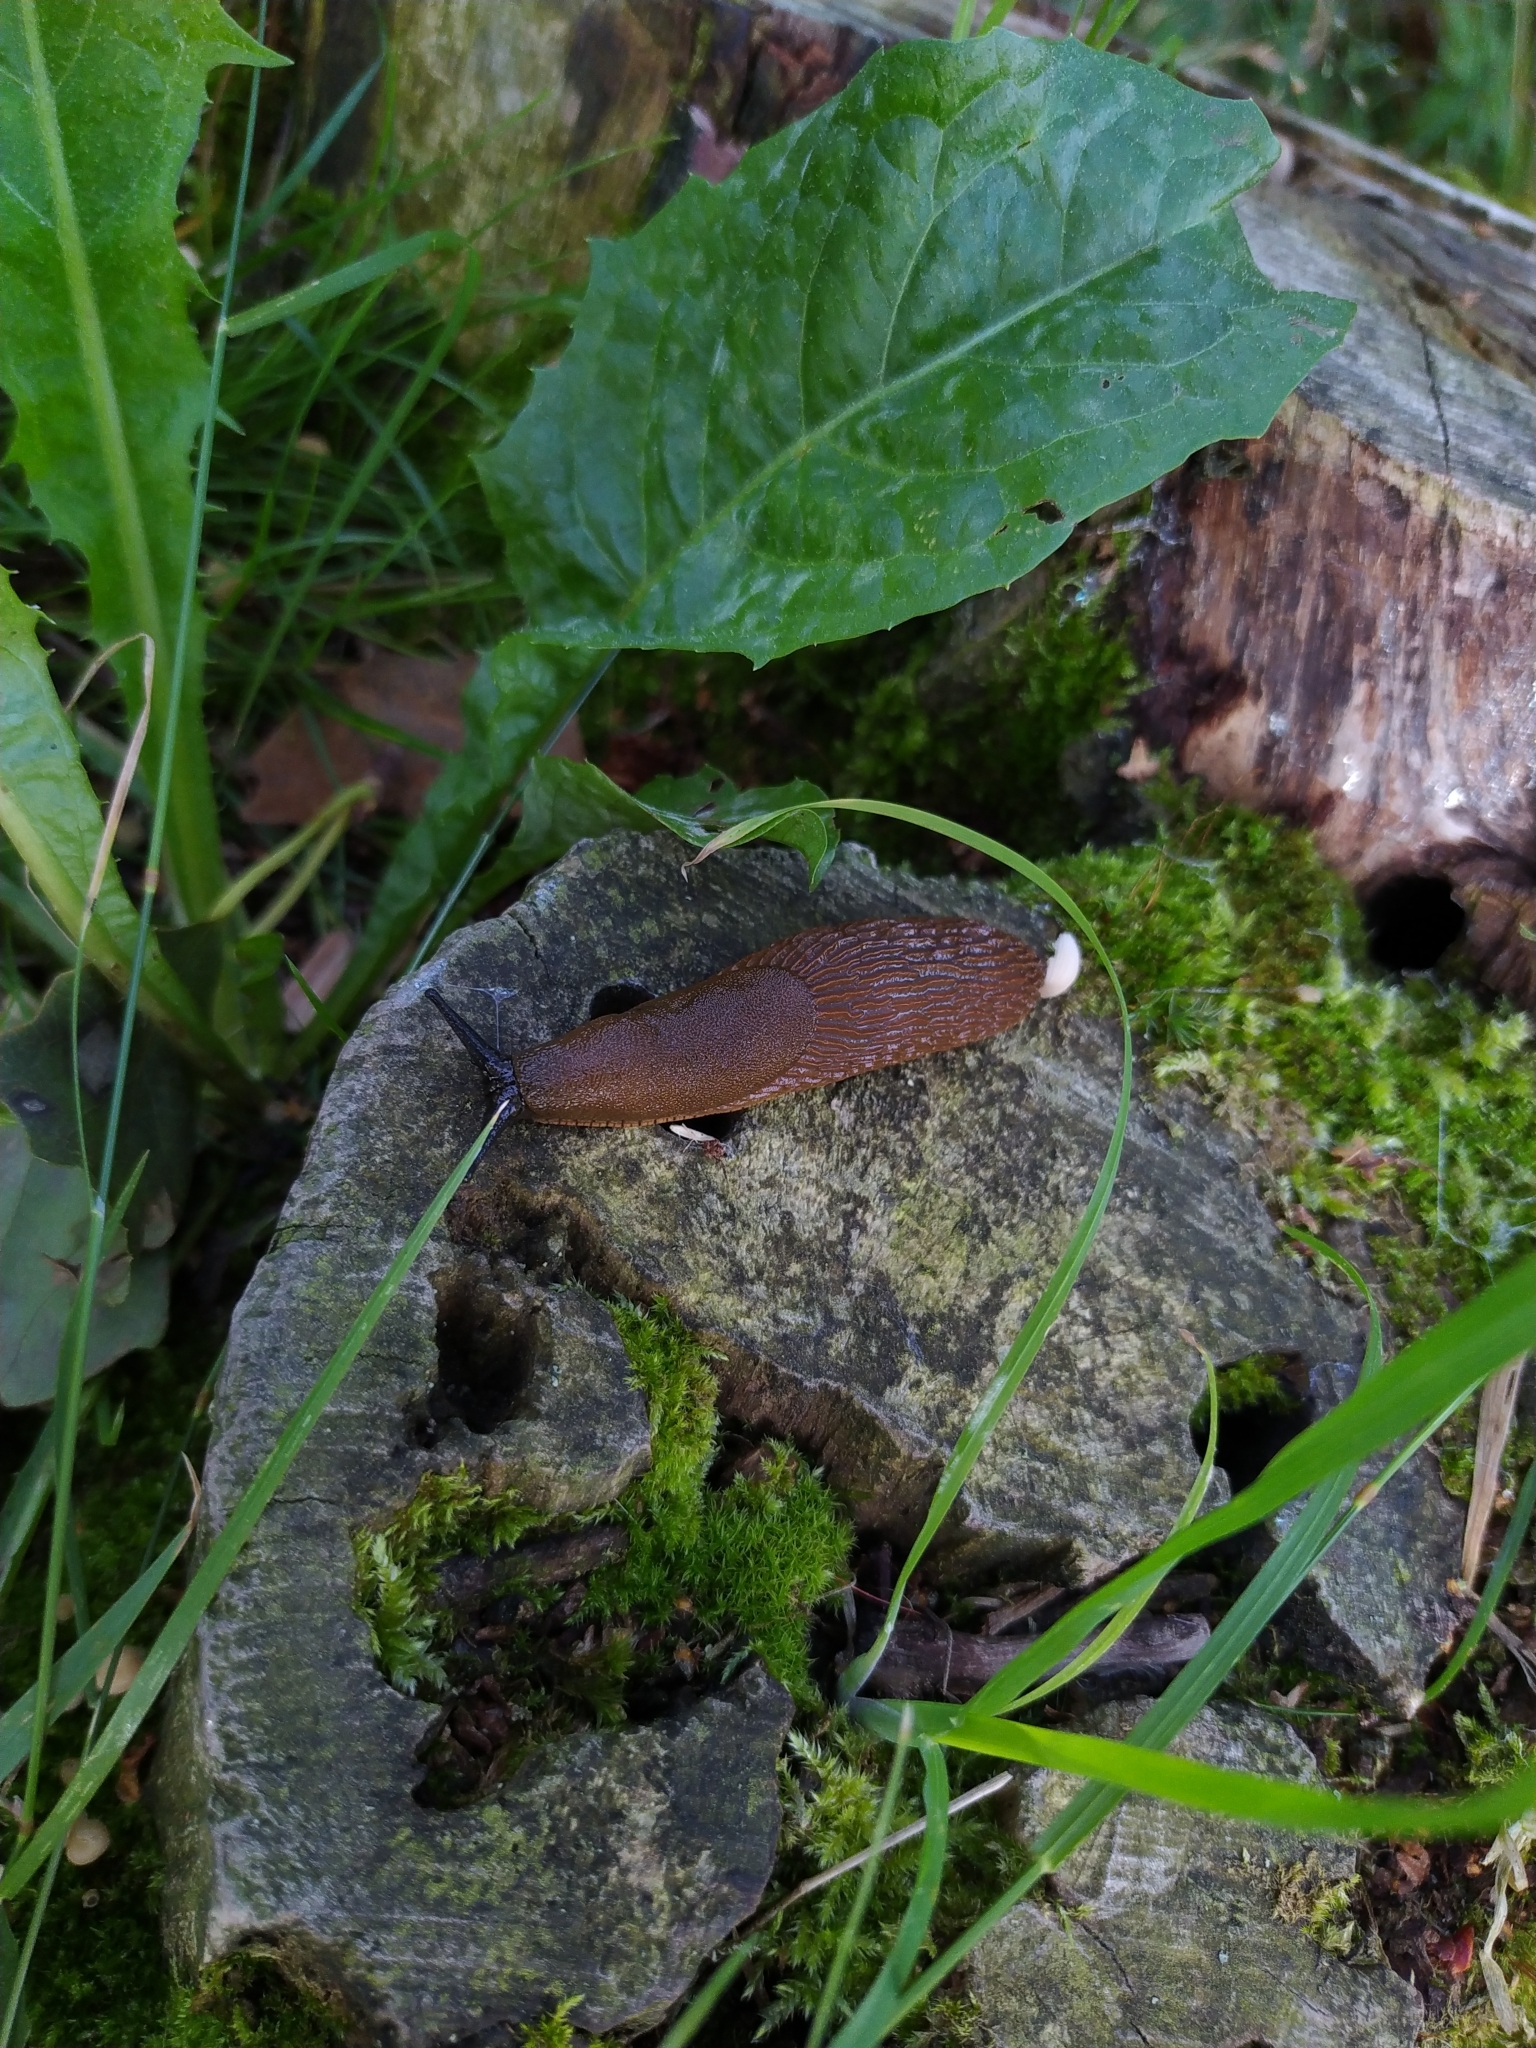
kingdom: Animalia
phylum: Mollusca
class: Gastropoda
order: Stylommatophora
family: Arionidae
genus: Arion
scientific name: Arion vulgaris
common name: Lusitanian slug
